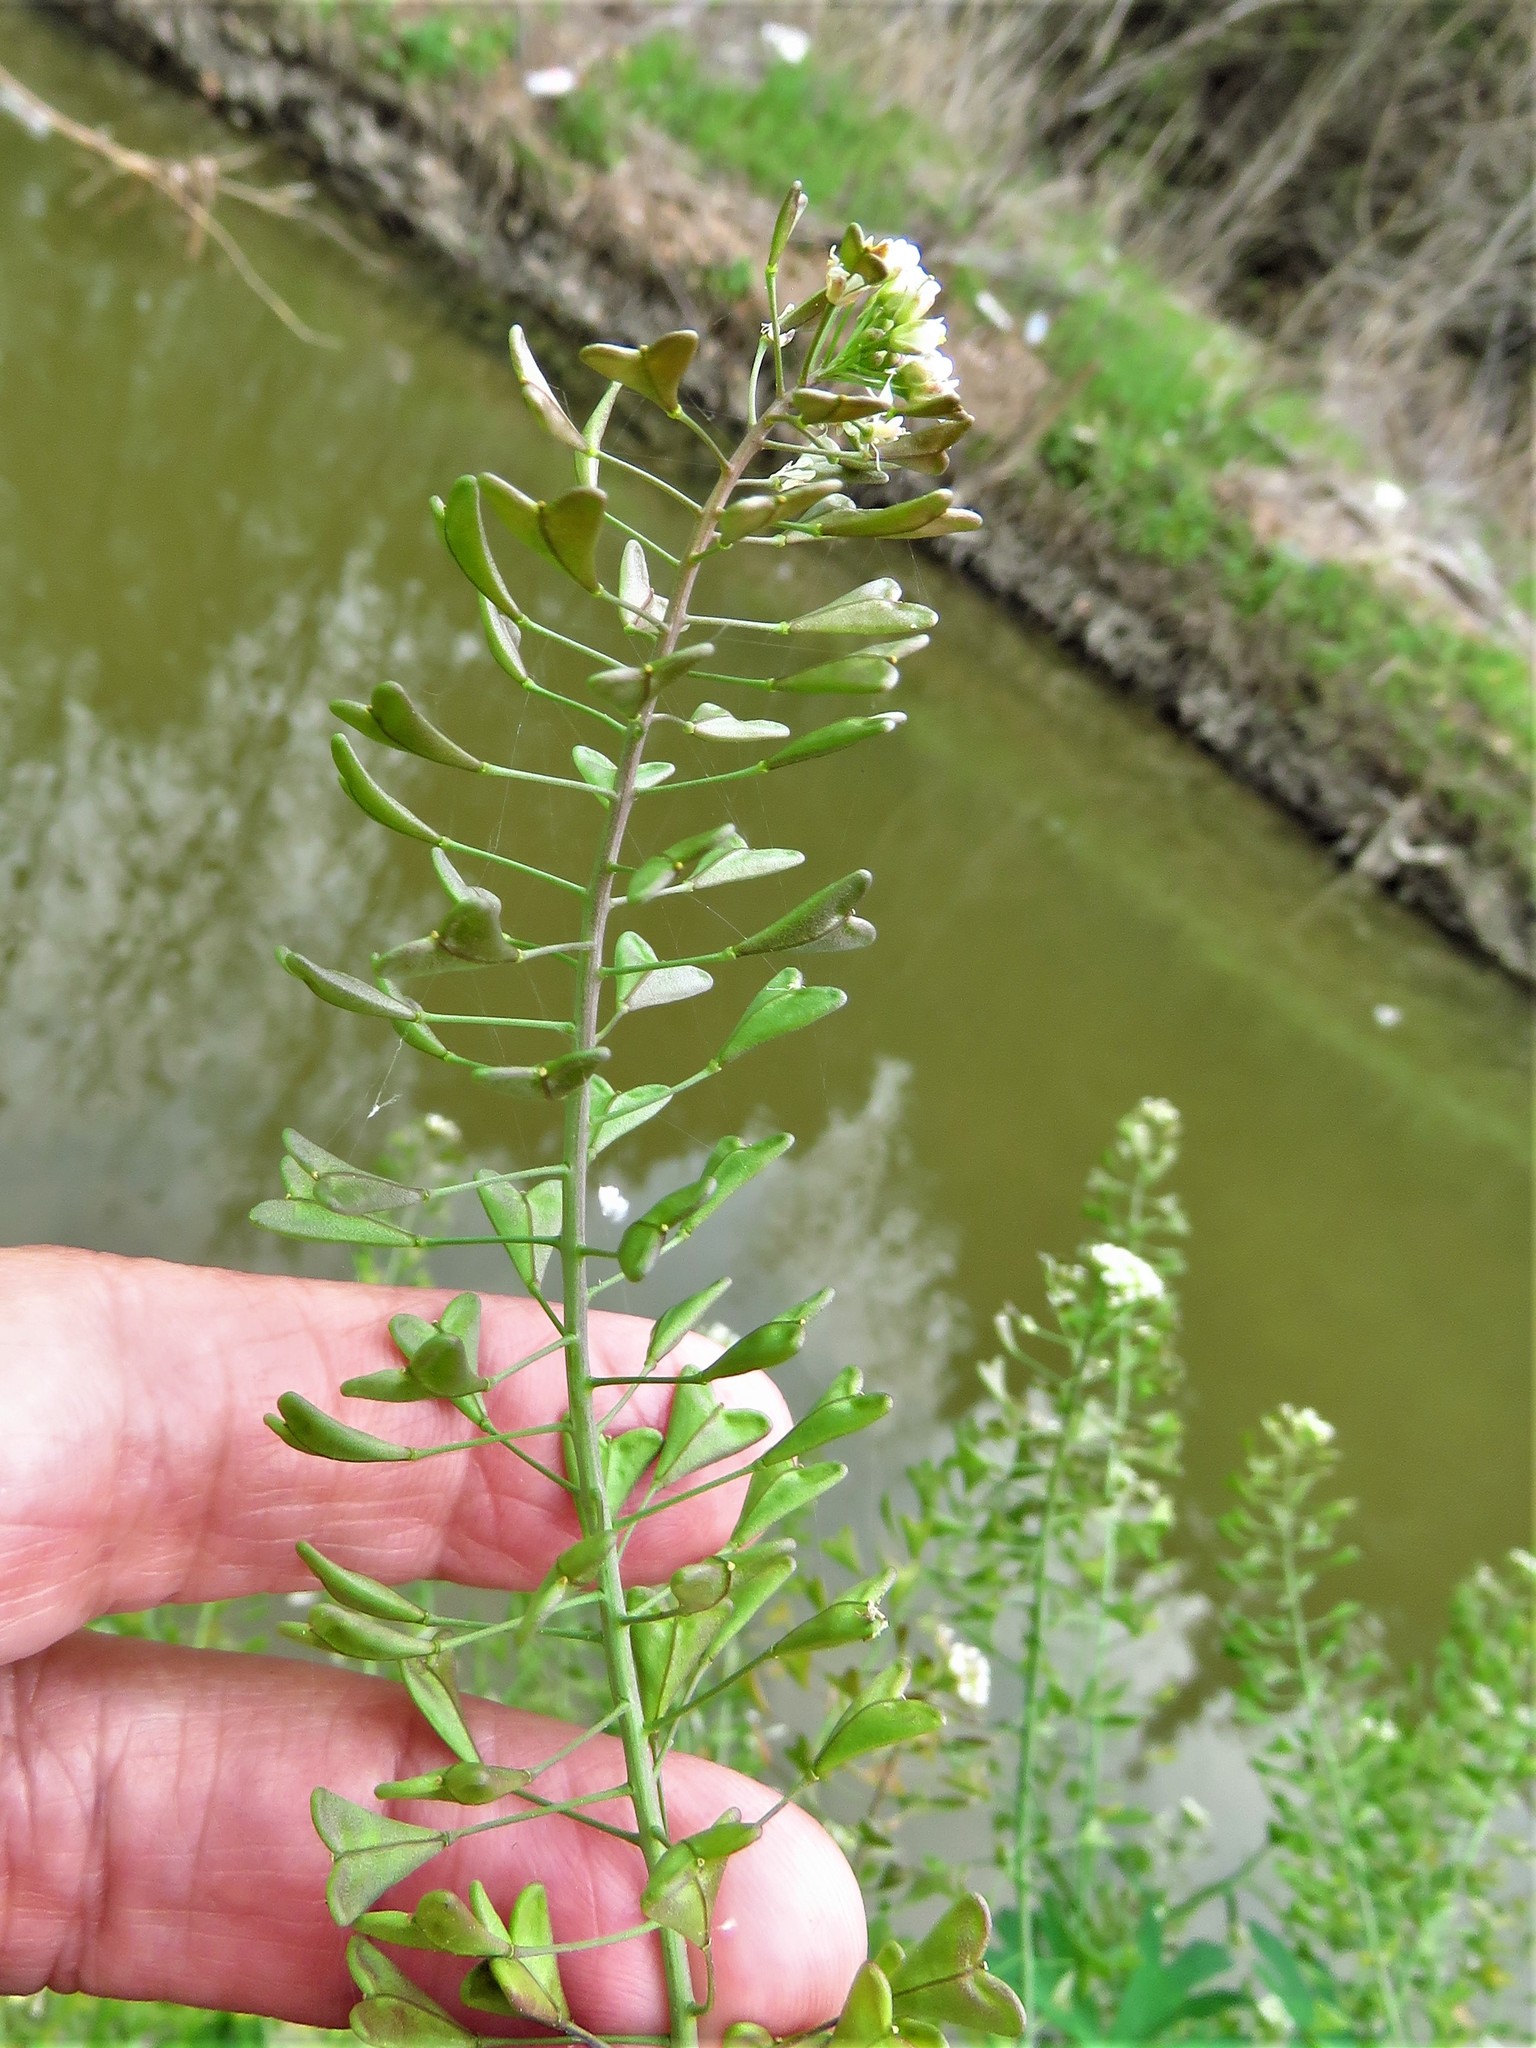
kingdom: Plantae
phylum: Tracheophyta
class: Magnoliopsida
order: Brassicales
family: Brassicaceae
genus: Capsella
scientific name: Capsella bursa-pastoris
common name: Shepherd's purse
